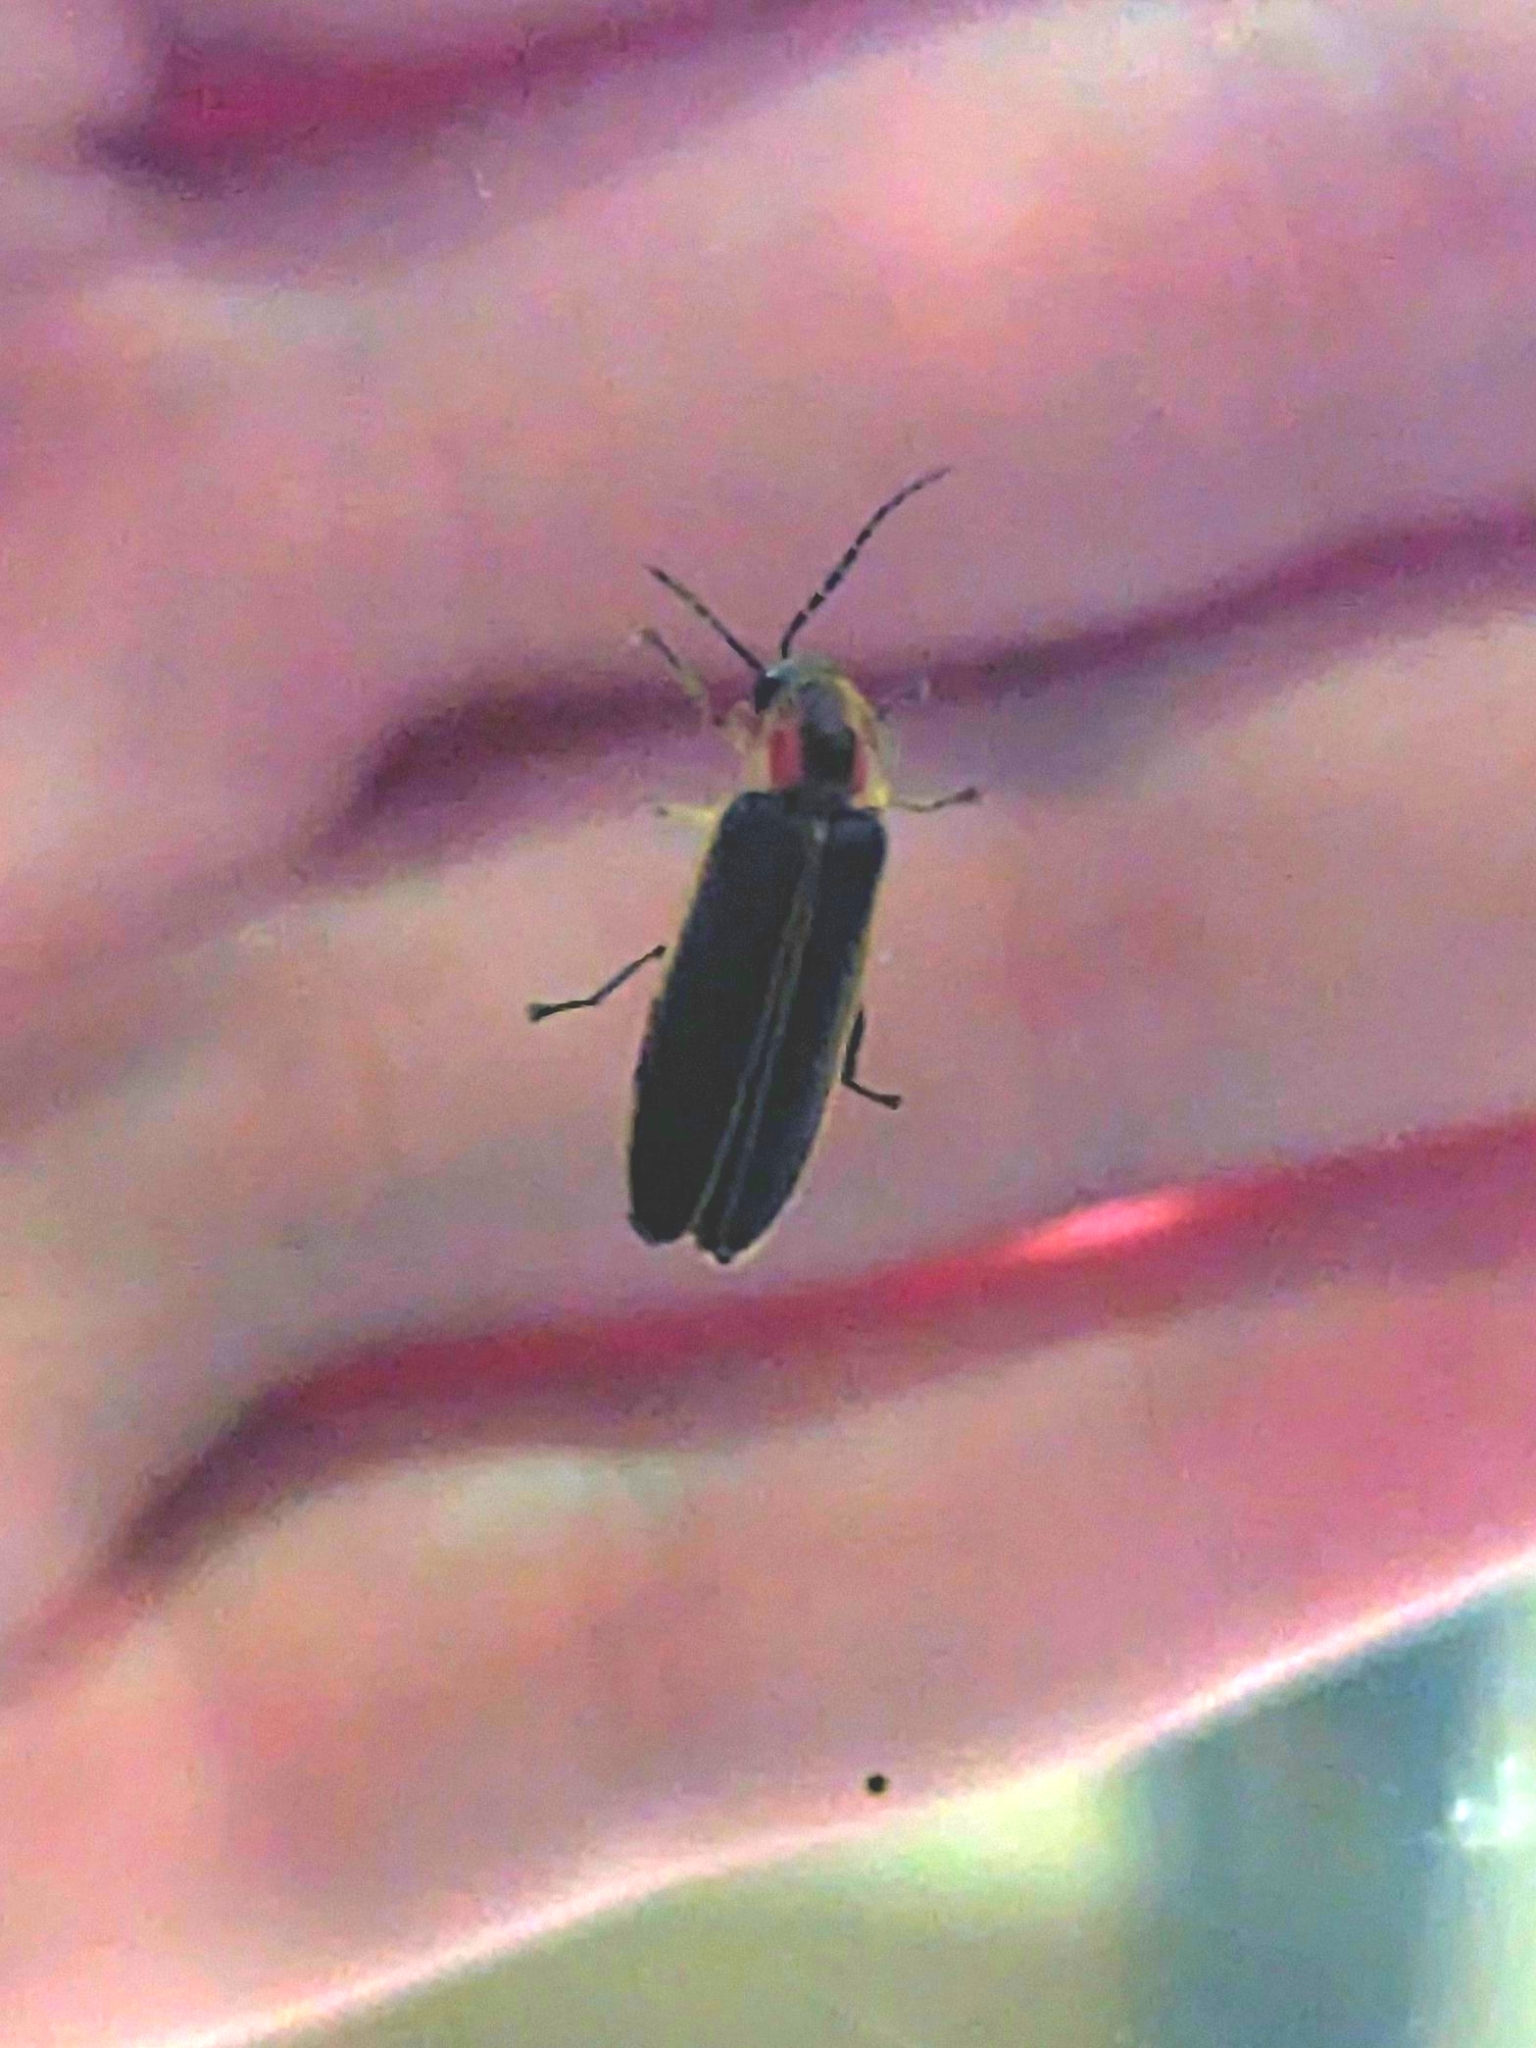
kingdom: Animalia
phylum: Arthropoda
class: Insecta
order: Coleoptera
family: Lampyridae
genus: Photinus
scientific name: Photinus pyralis
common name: Big dipper firefly
